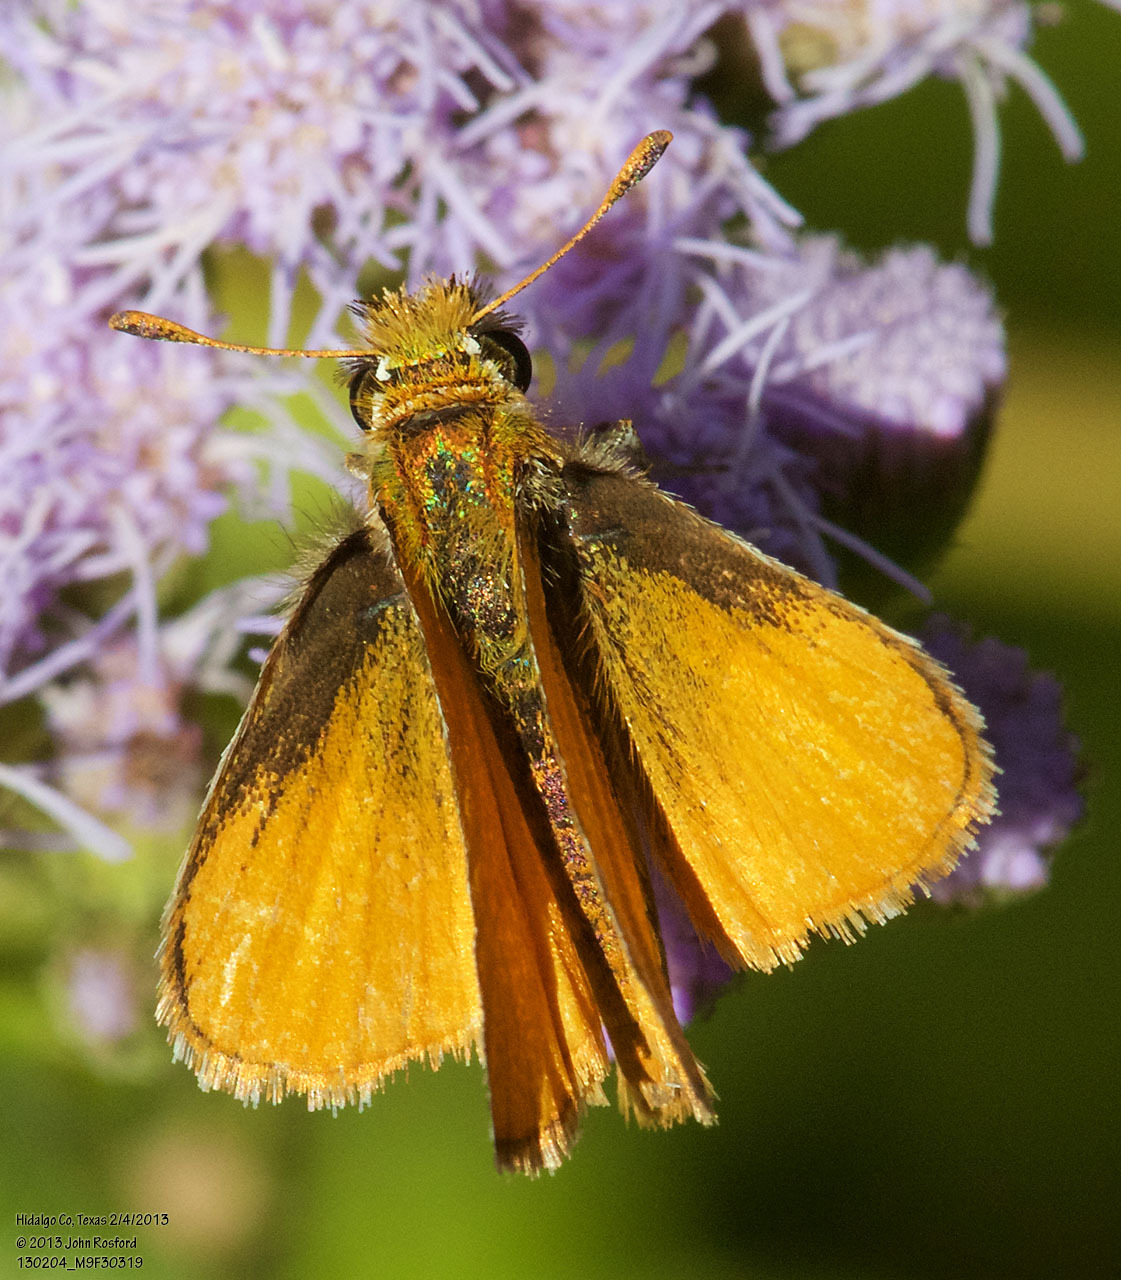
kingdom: Animalia
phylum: Arthropoda
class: Insecta
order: Lepidoptera
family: Hesperiidae
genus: Copaeodes
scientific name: Copaeodes minima
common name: Southern skipperling
